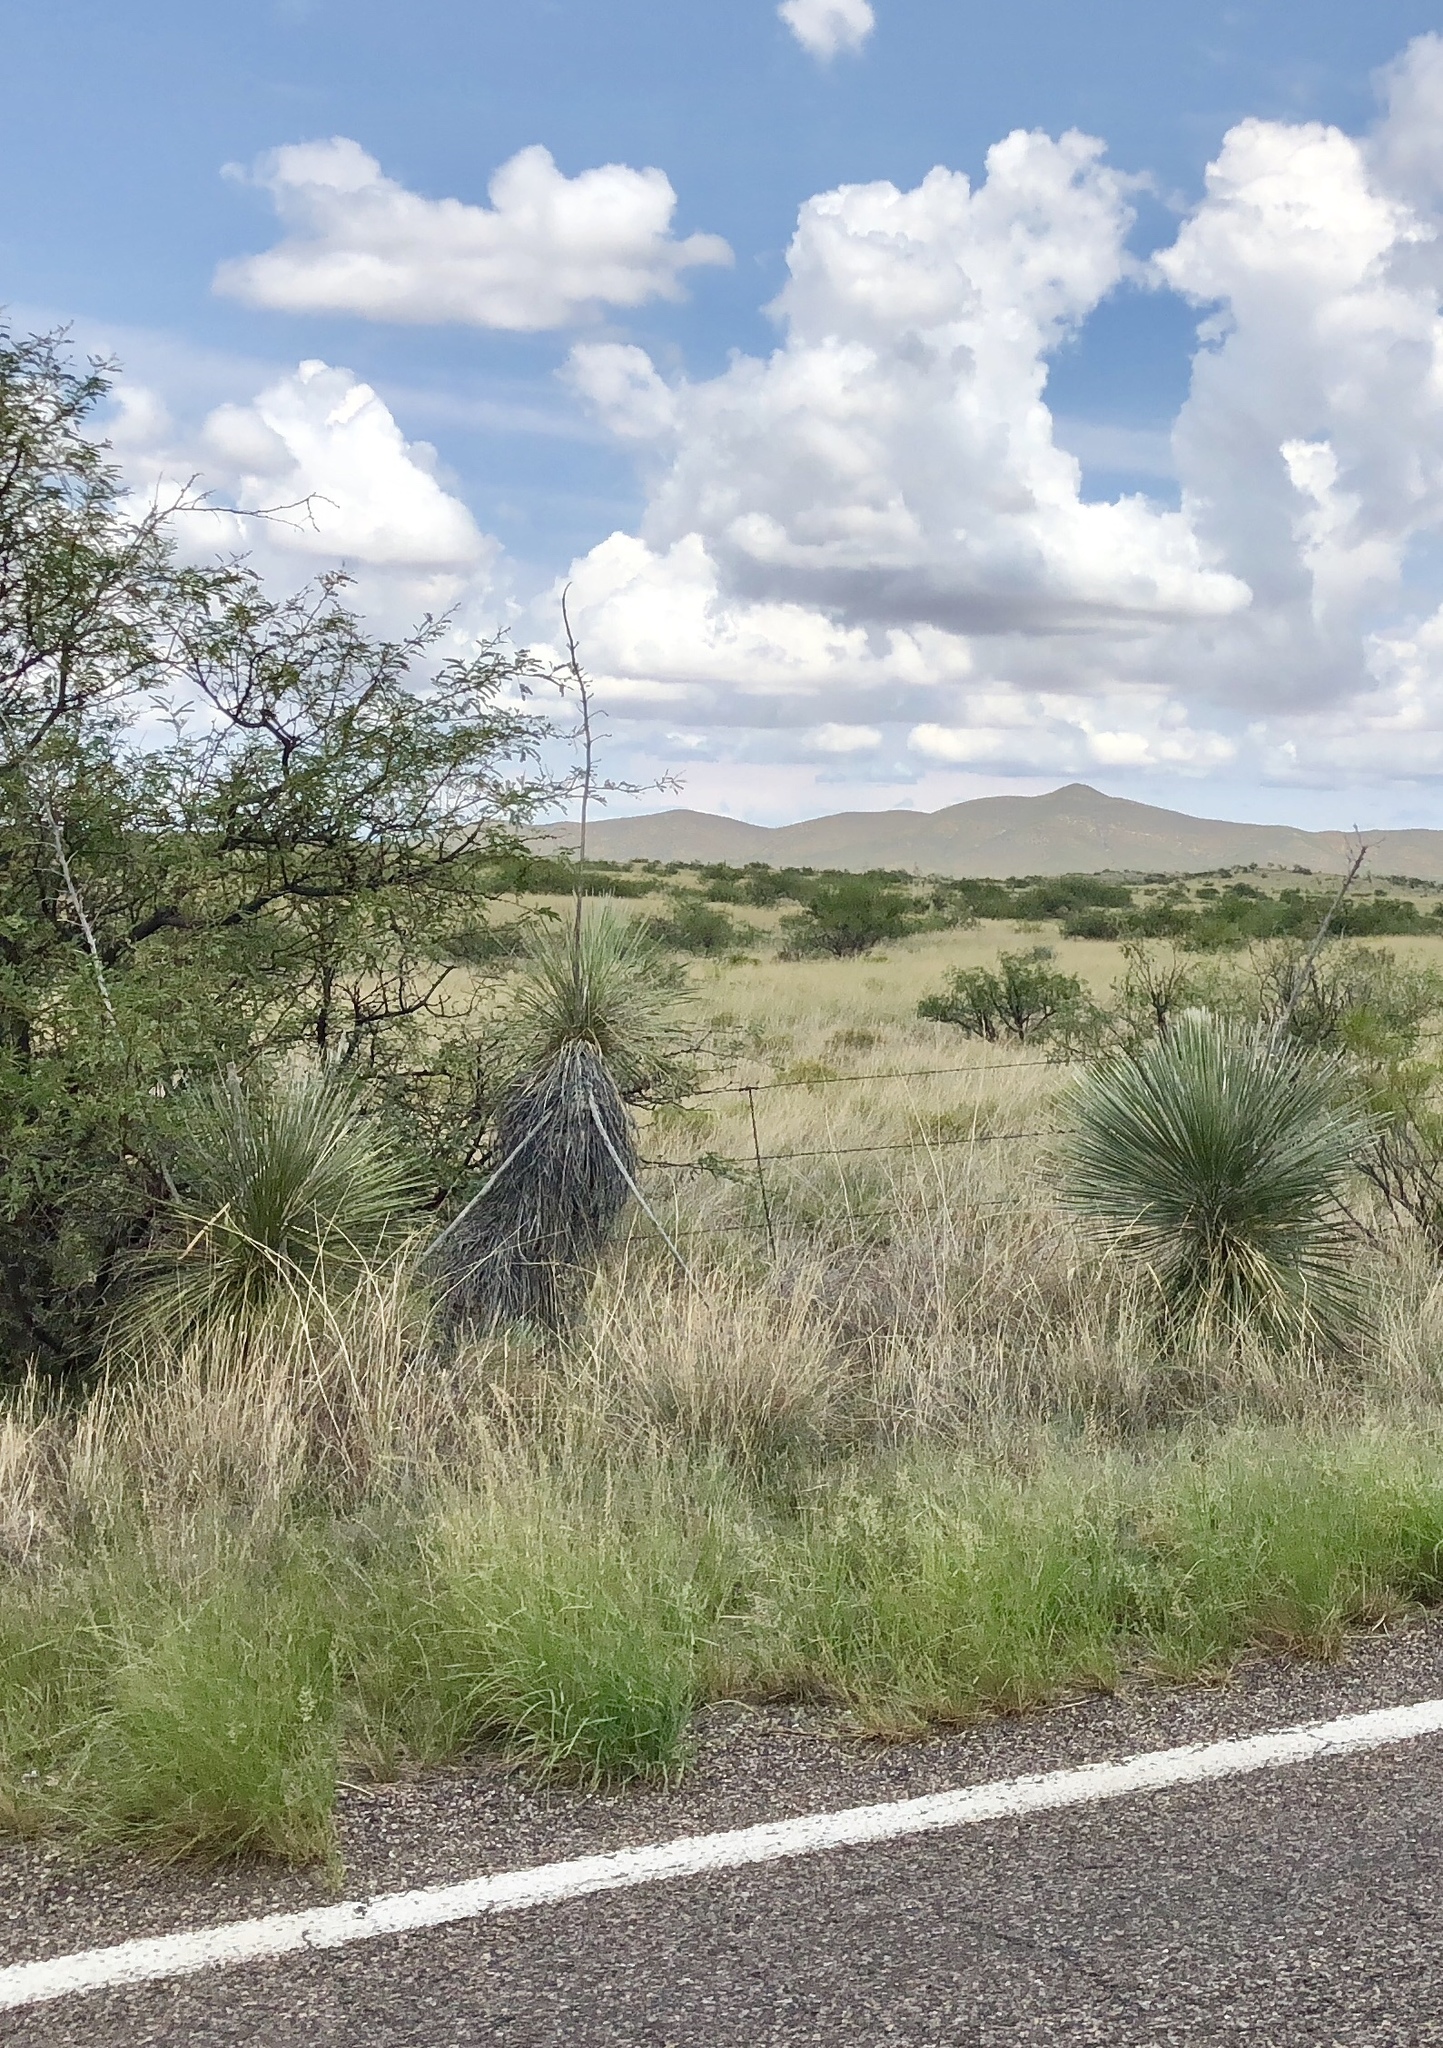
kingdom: Plantae
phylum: Tracheophyta
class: Liliopsida
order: Asparagales
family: Asparagaceae
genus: Yucca
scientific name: Yucca elata
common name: Palmella
